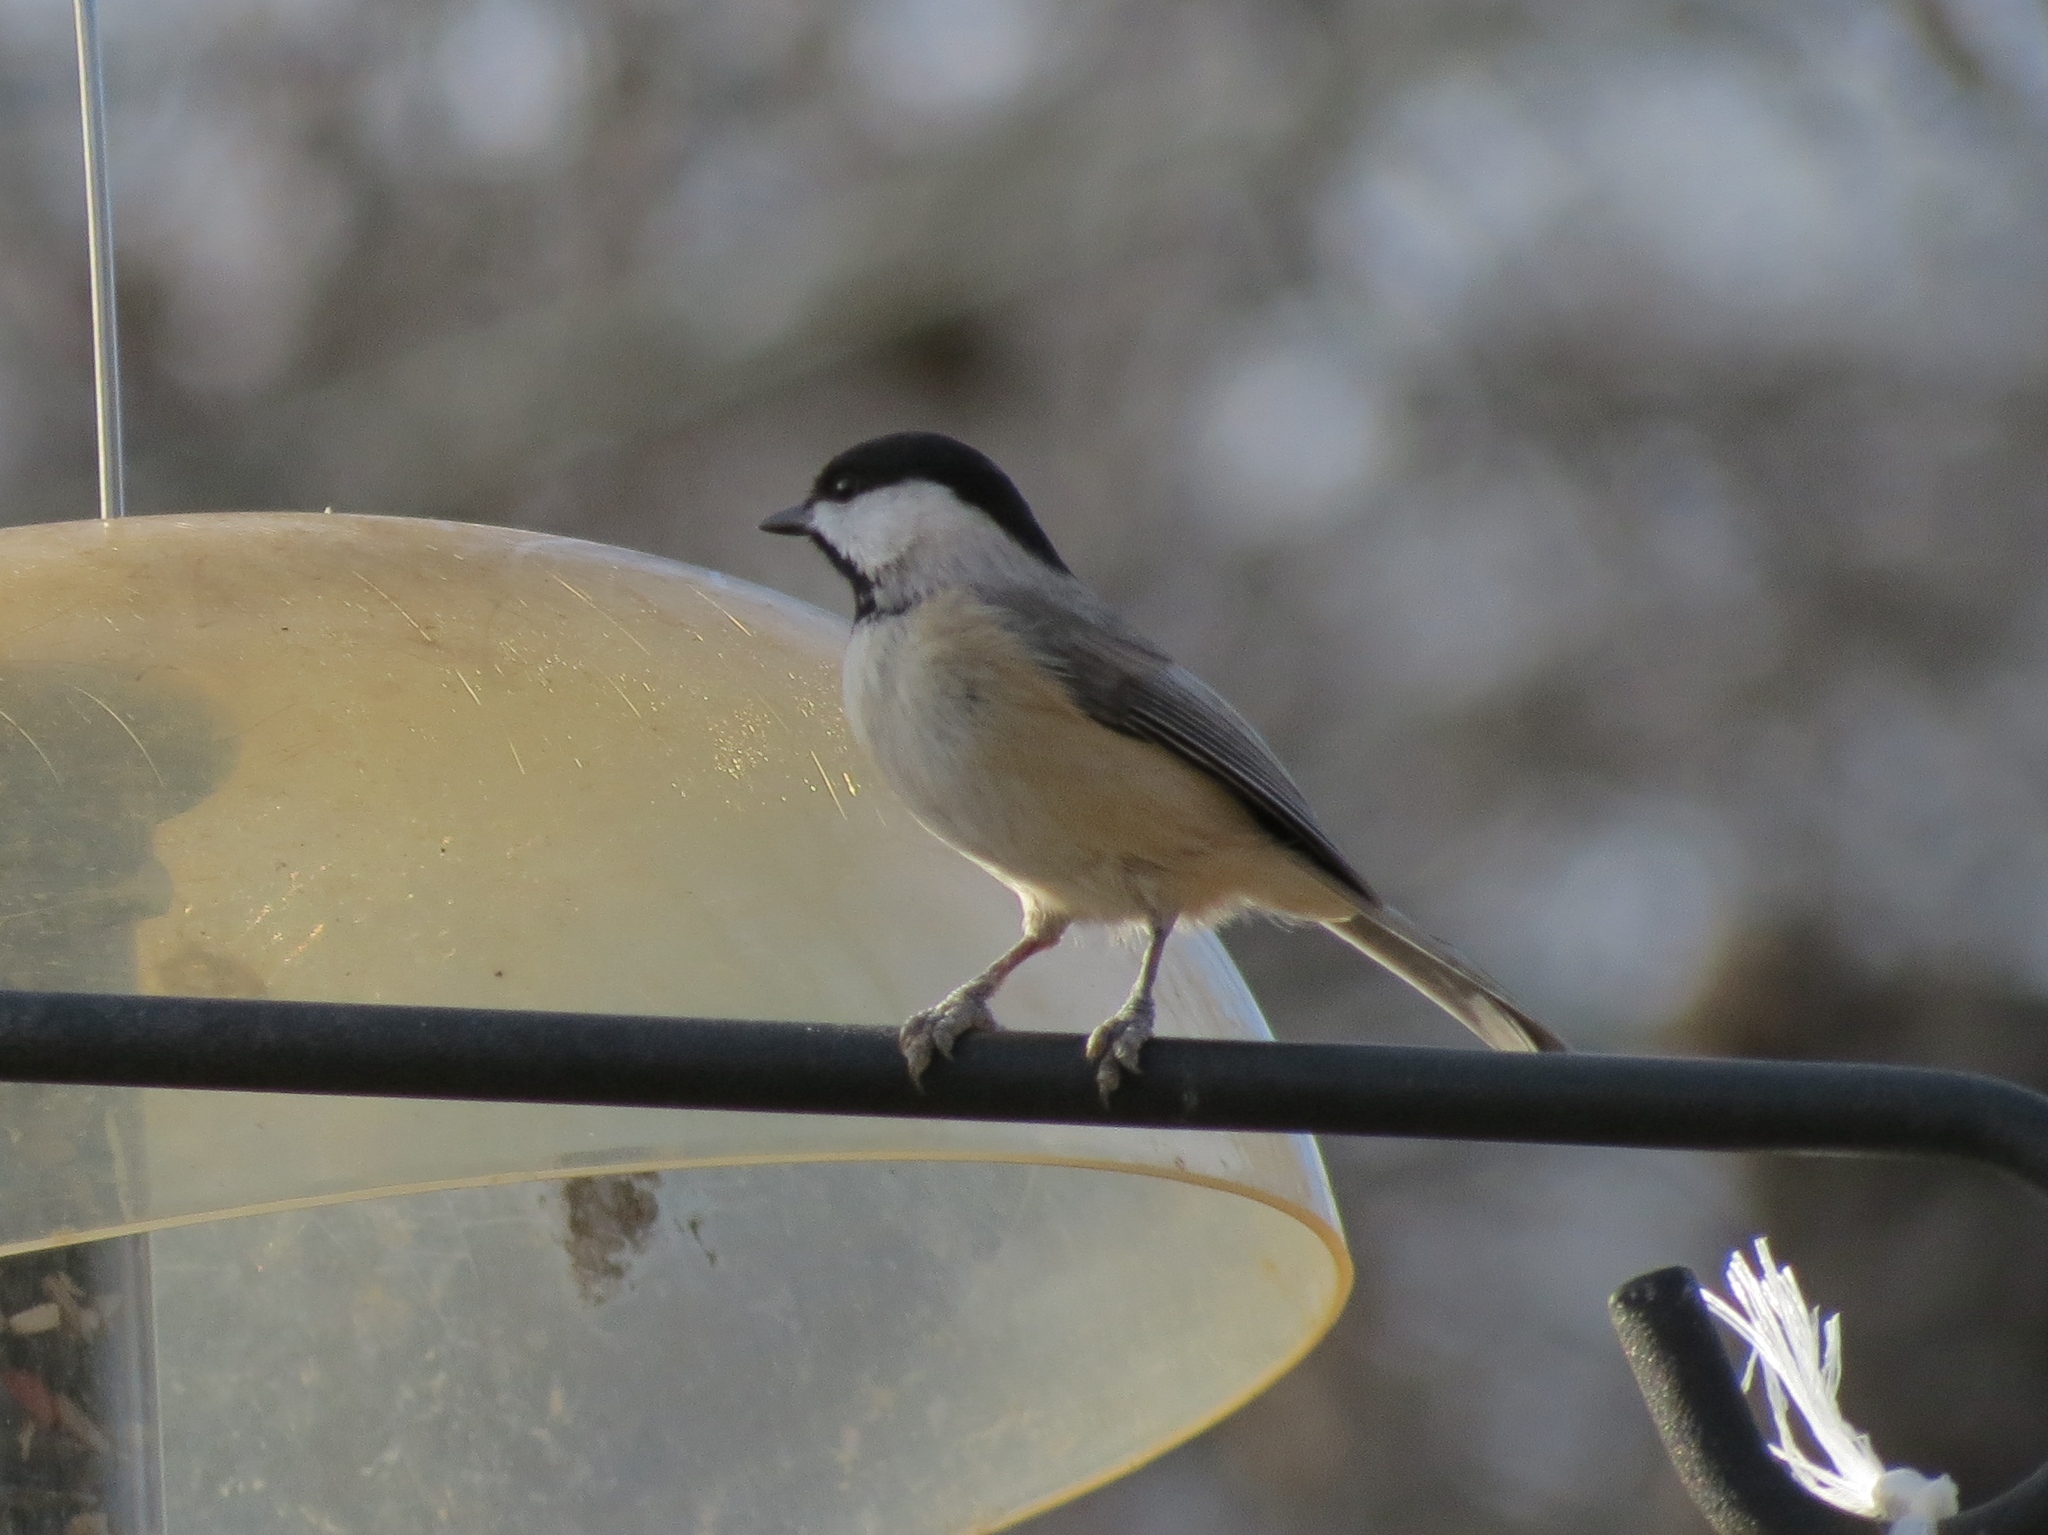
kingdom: Animalia
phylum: Chordata
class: Aves
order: Passeriformes
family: Paridae
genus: Poecile
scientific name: Poecile carolinensis
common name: Carolina chickadee
